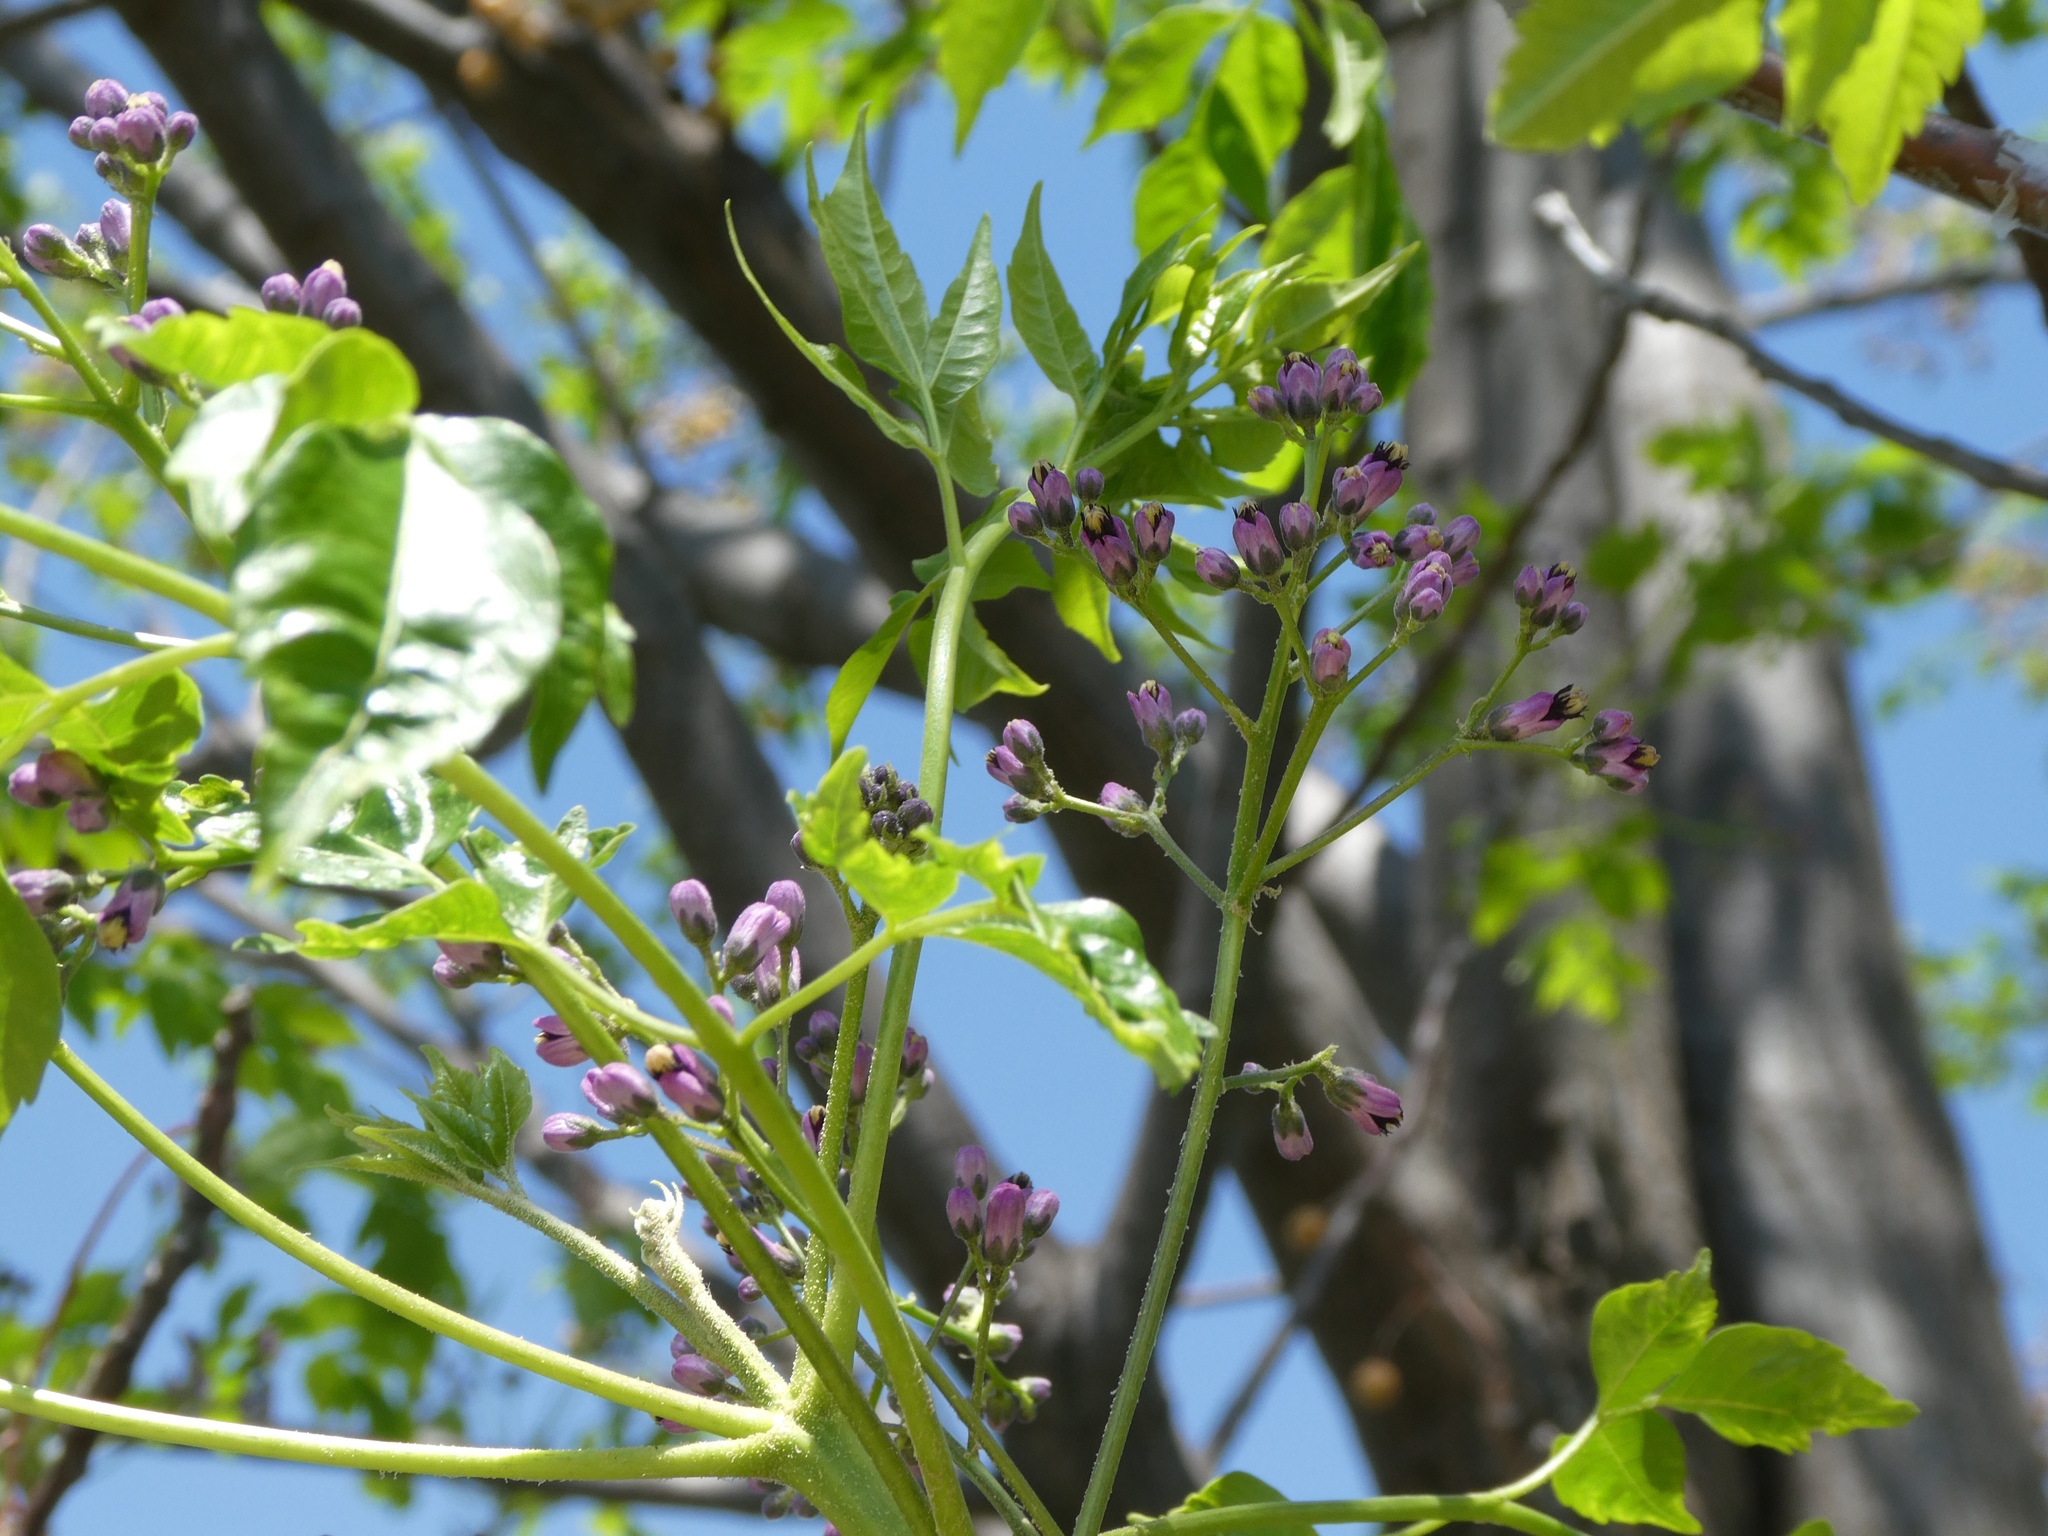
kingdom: Plantae
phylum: Tracheophyta
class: Magnoliopsida
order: Sapindales
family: Meliaceae
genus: Melia
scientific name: Melia azedarach
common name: Chinaberrytree
